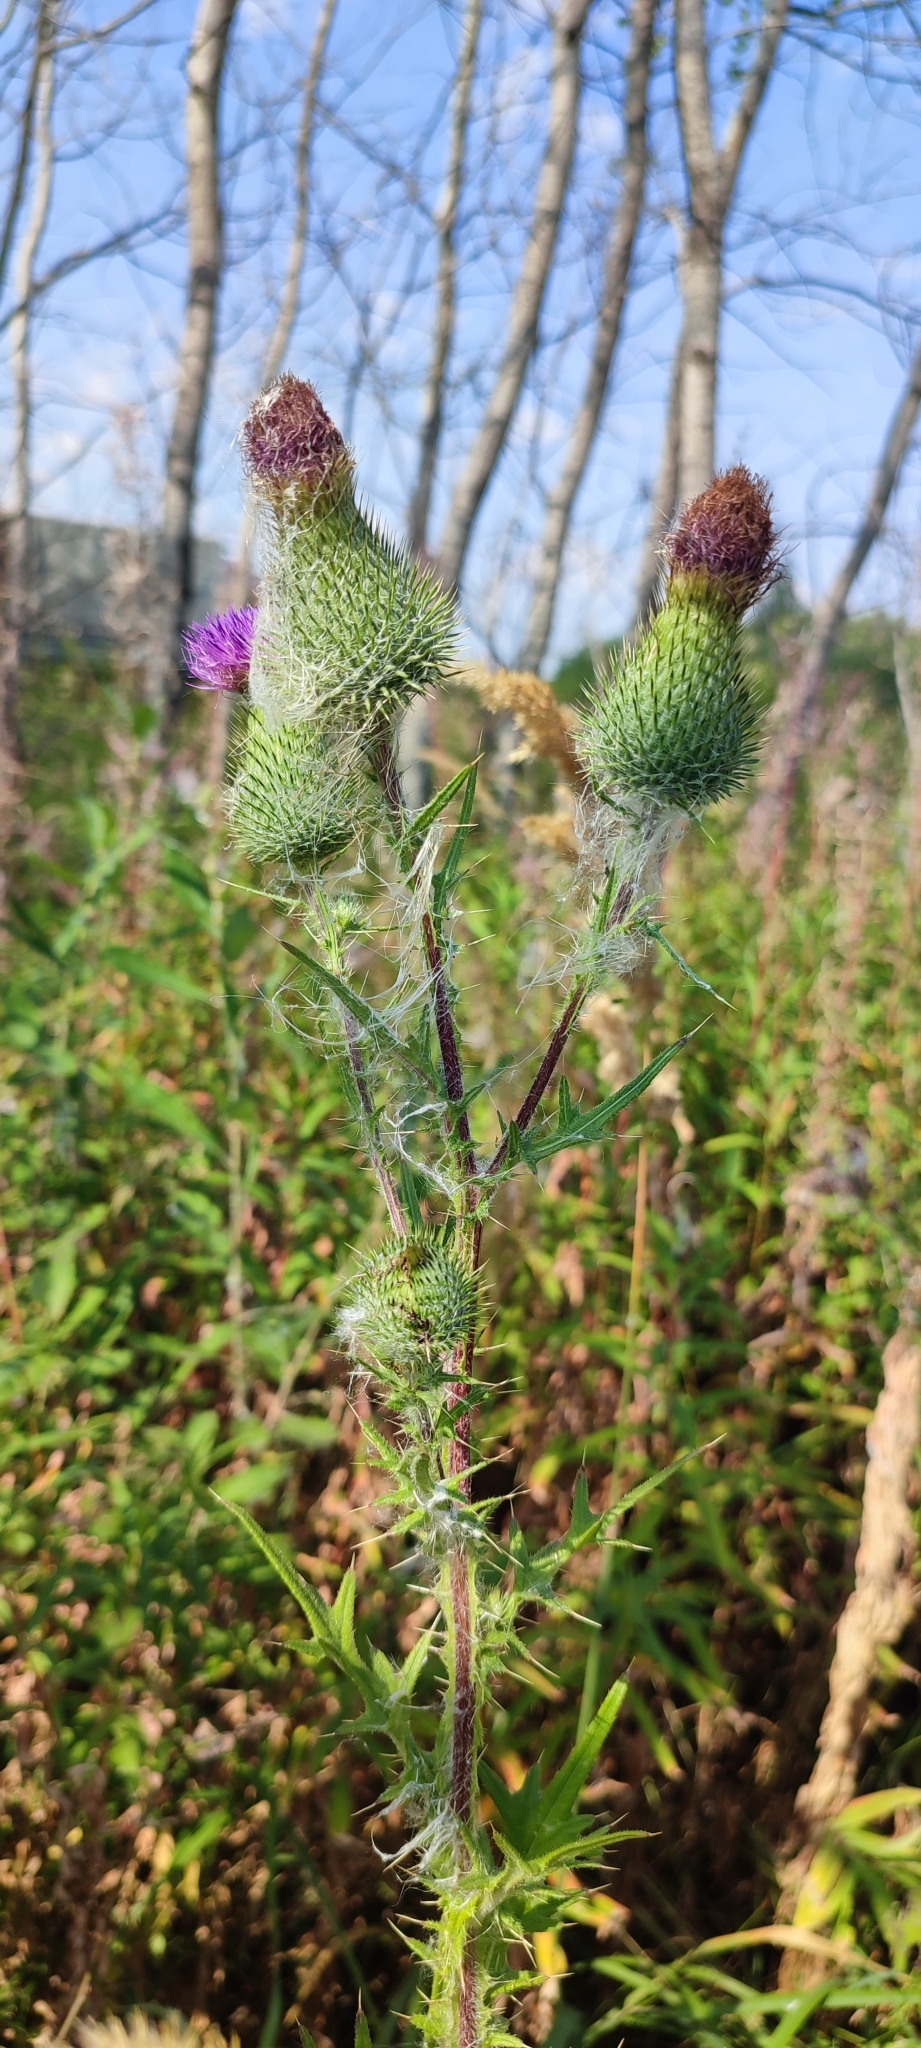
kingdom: Plantae
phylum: Tracheophyta
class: Magnoliopsida
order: Asterales
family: Asteraceae
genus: Cirsium
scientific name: Cirsium vulgare
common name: Bull thistle
